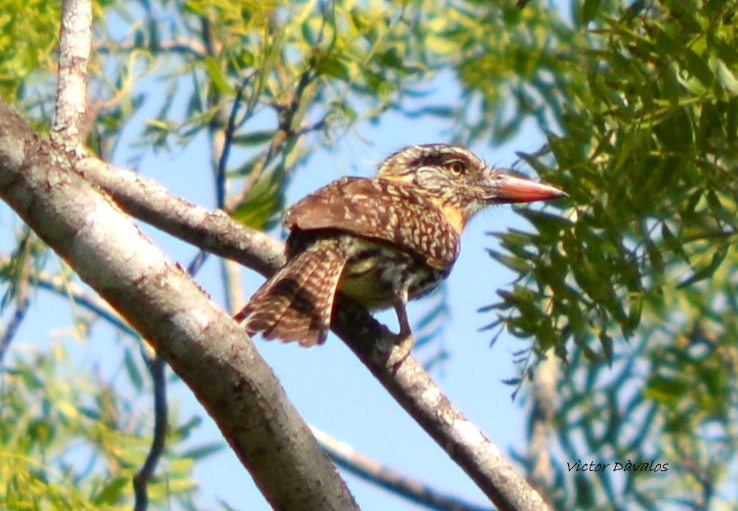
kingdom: Animalia
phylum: Chordata
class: Aves
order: Piciformes
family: Bucconidae
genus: Nystalus
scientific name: Nystalus maculatus
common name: Caatinga puffbird
